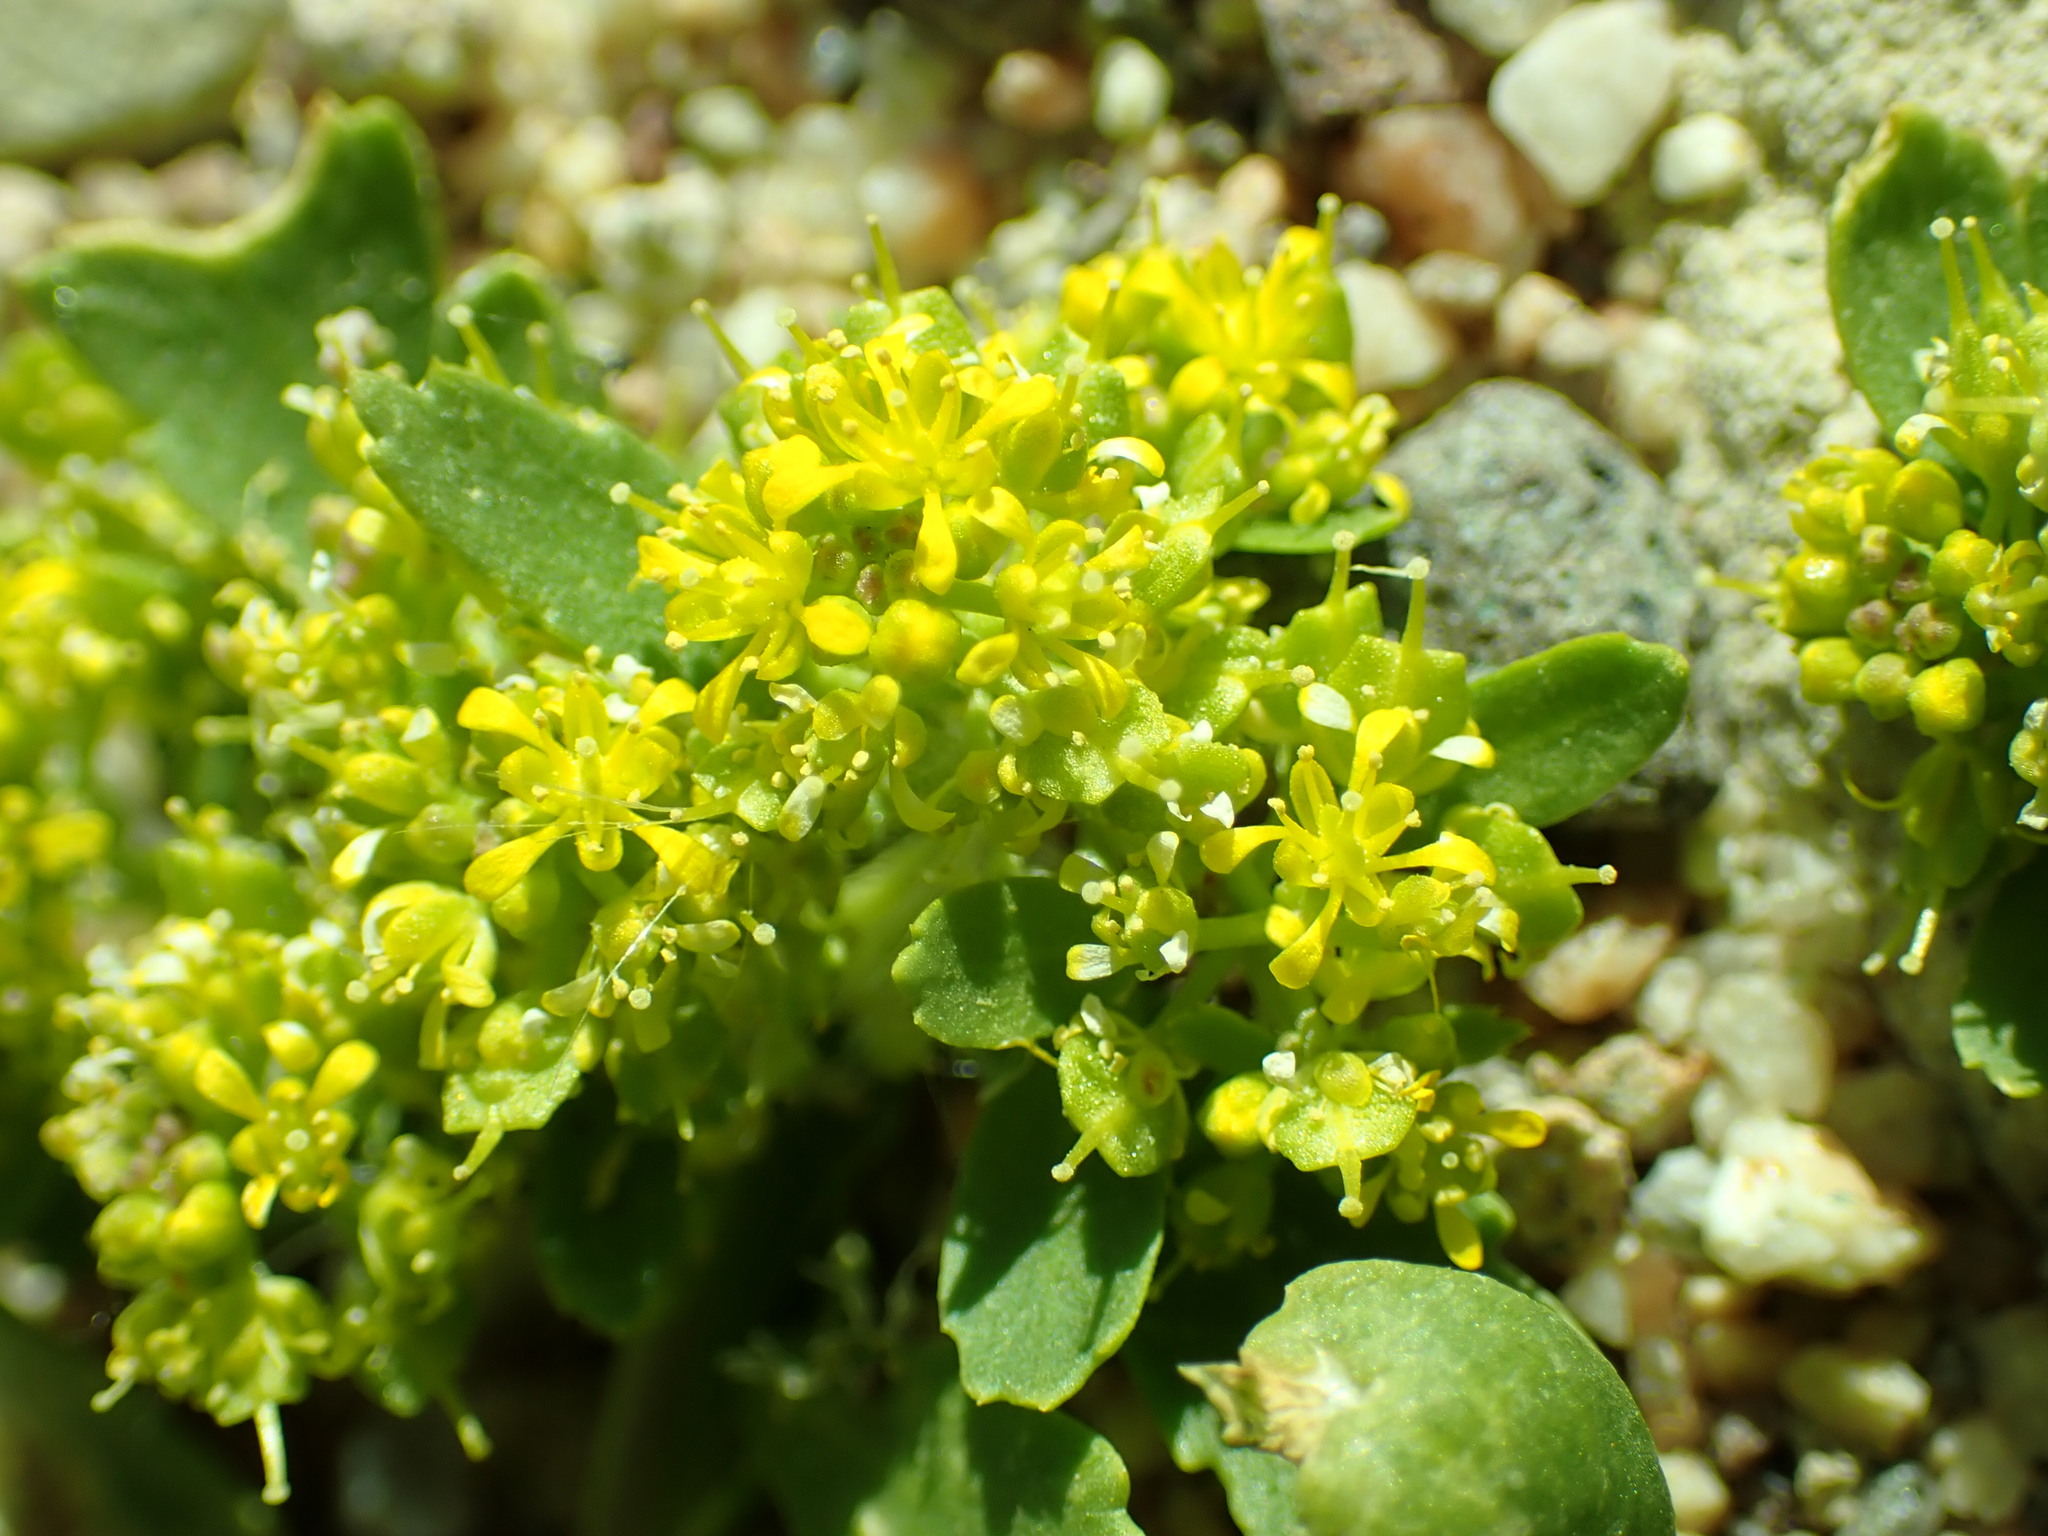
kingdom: Plantae
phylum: Tracheophyta
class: Magnoliopsida
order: Brassicales
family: Brassicaceae
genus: Lepidium
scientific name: Lepidium flavum
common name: Yellow pepperwort
